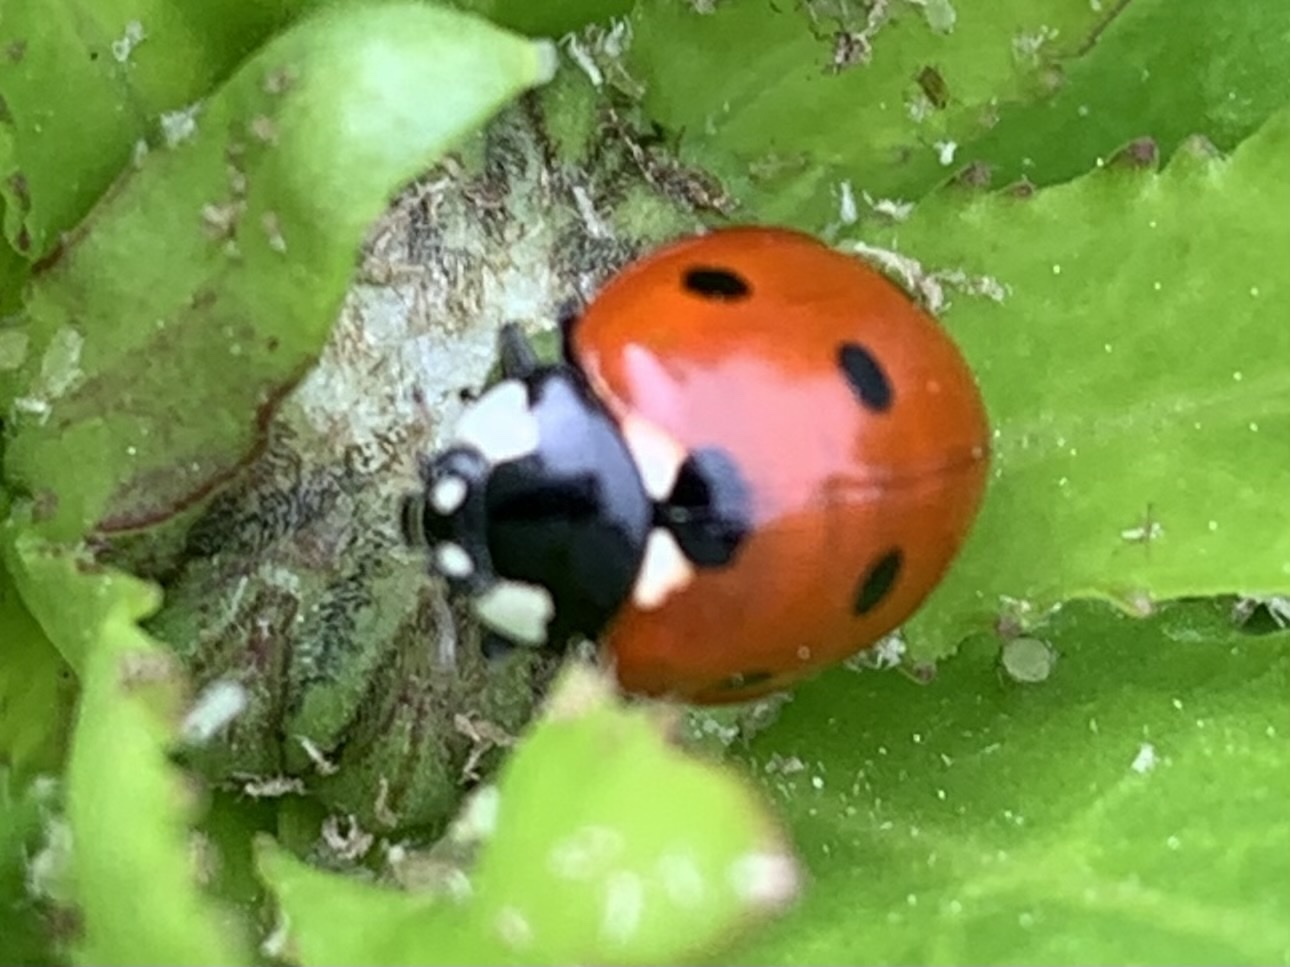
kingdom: Animalia
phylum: Arthropoda
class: Insecta
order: Coleoptera
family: Coccinellidae
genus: Coccinella
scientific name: Coccinella septempunctata
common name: Sevenspotted lady beetle
